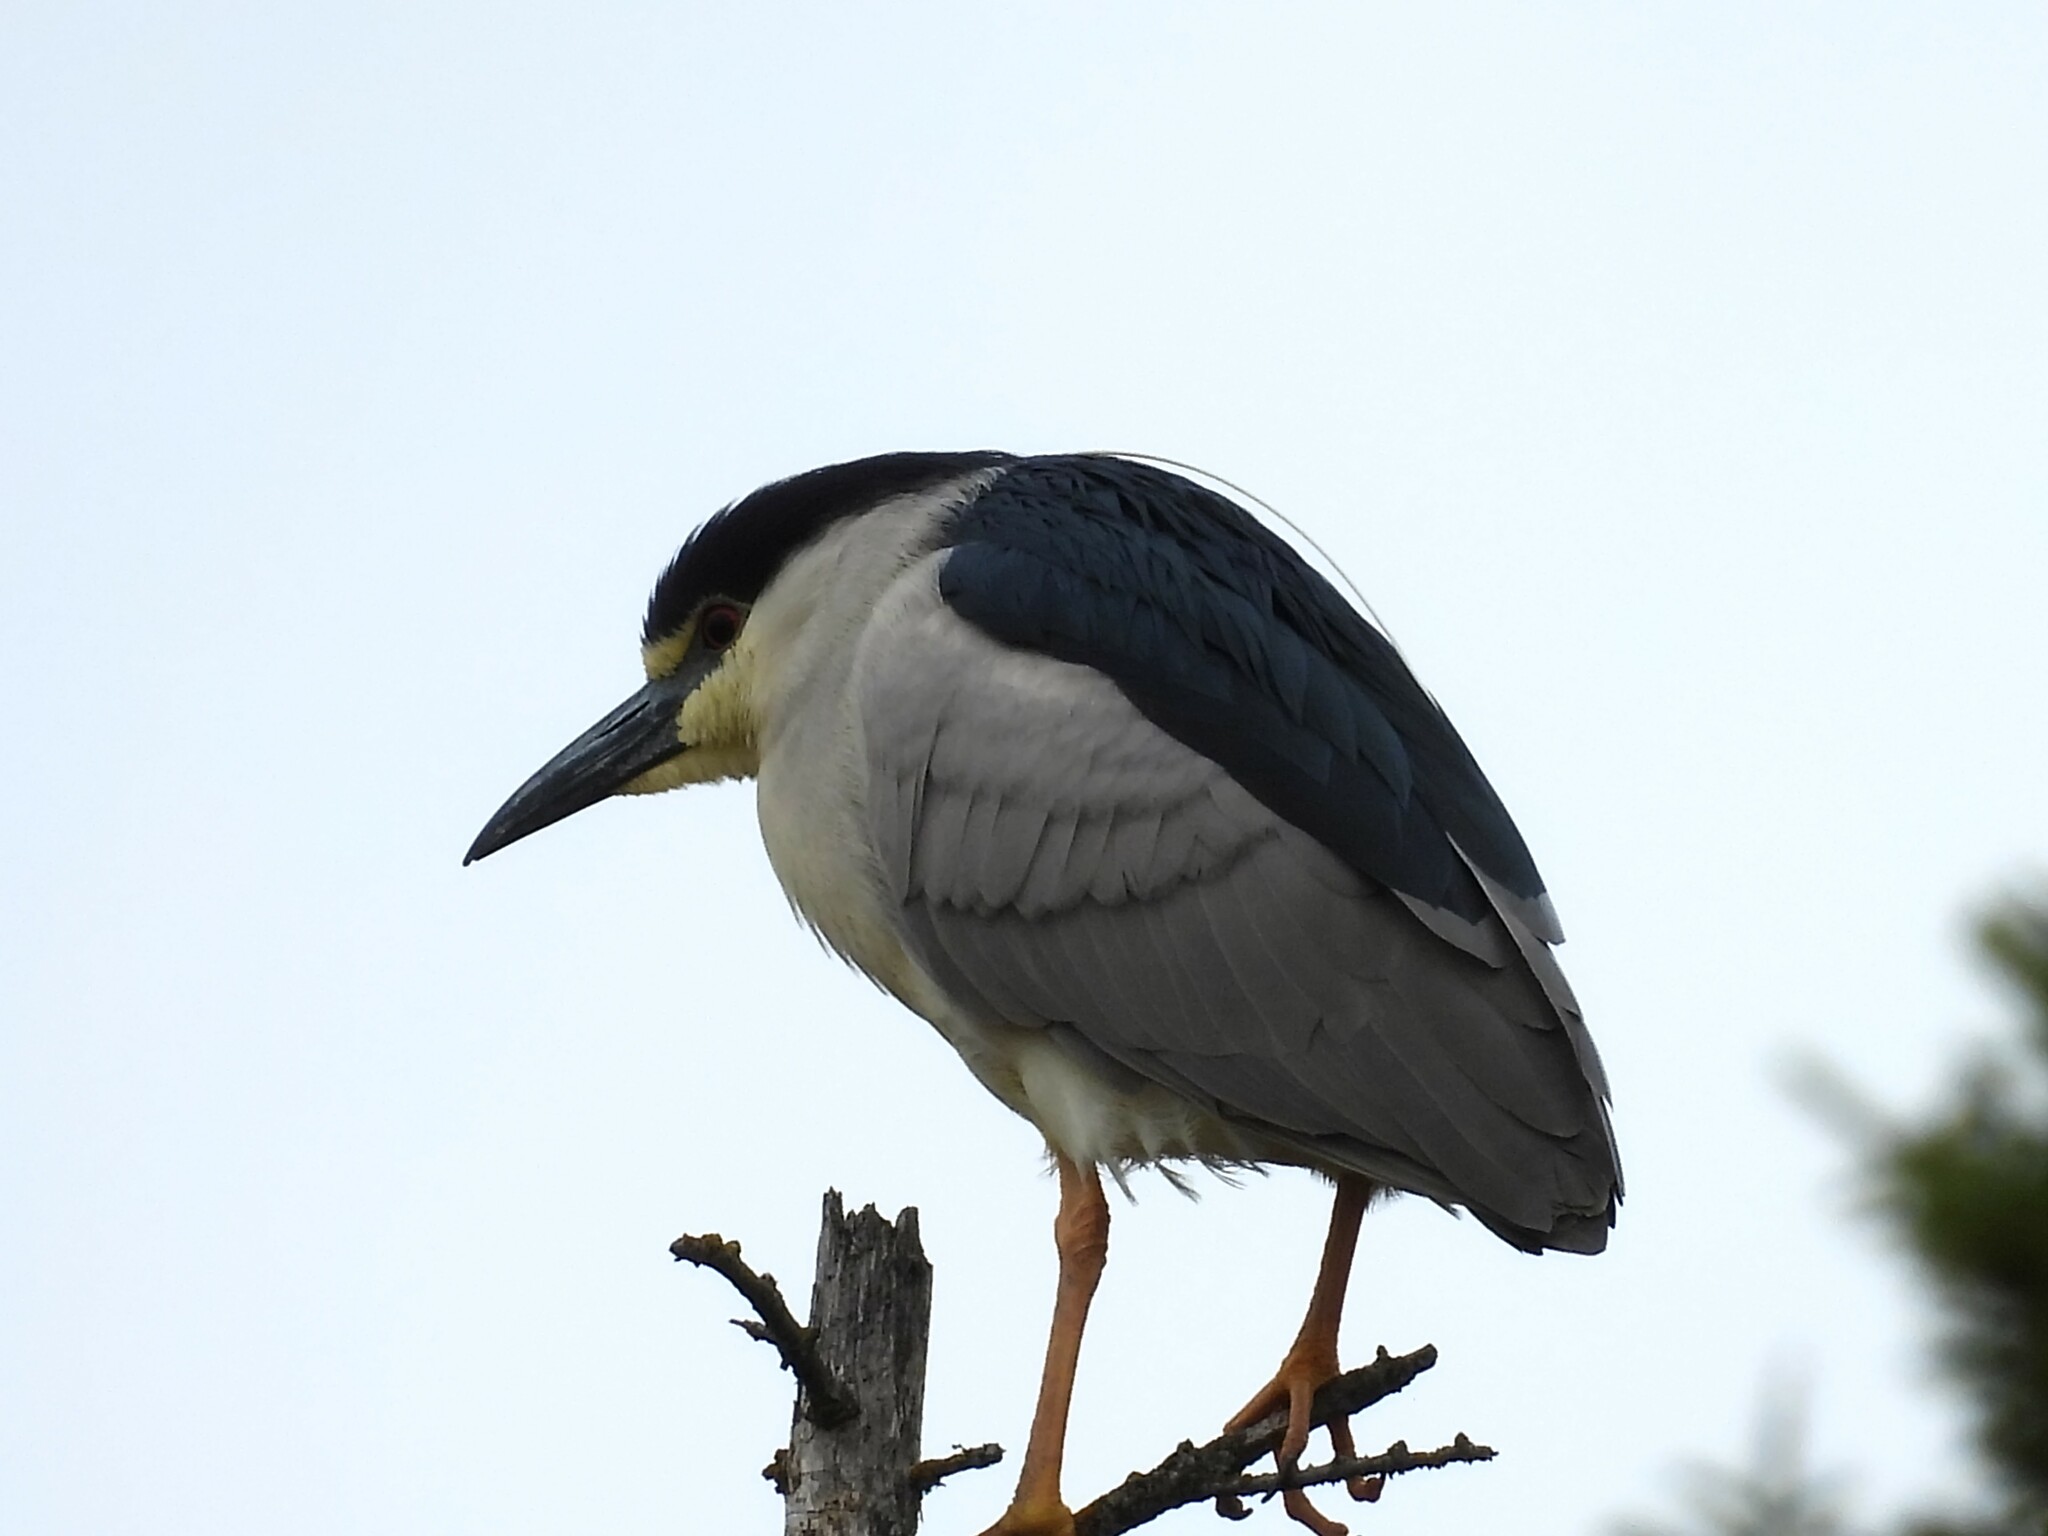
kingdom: Animalia
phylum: Chordata
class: Aves
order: Pelecaniformes
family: Ardeidae
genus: Nycticorax
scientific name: Nycticorax nycticorax
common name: Black-crowned night heron
